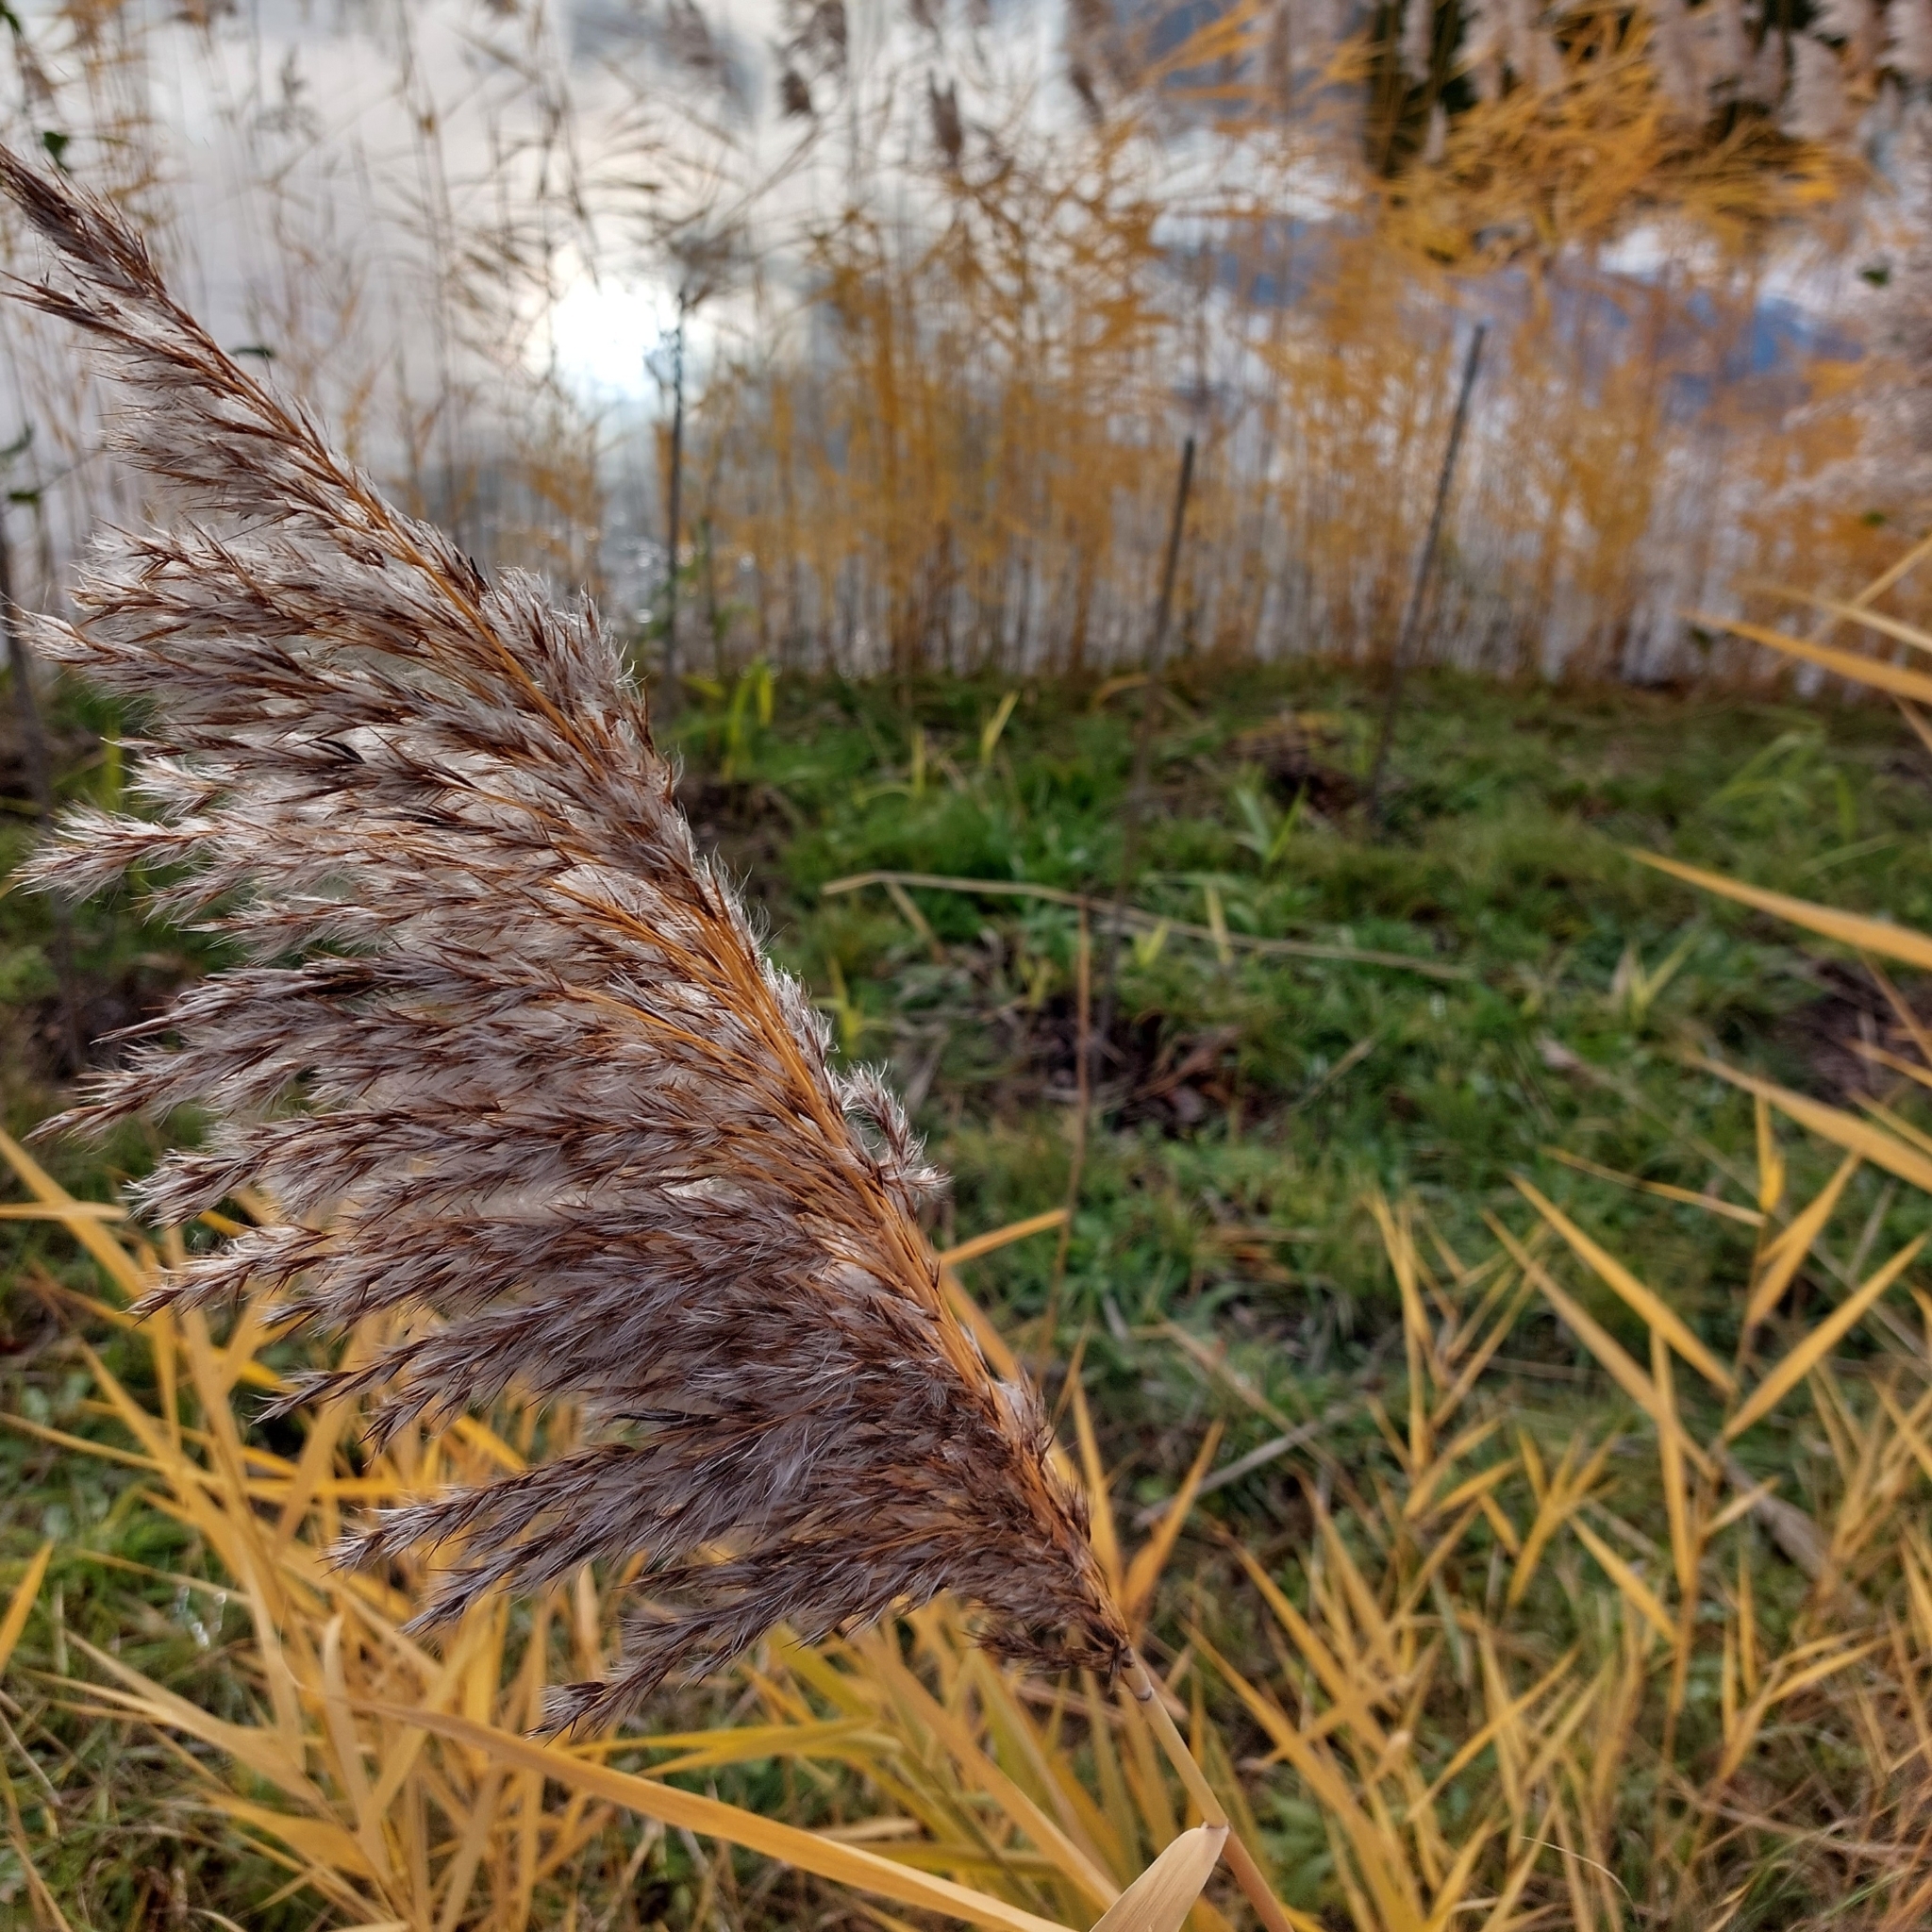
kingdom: Plantae
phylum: Tracheophyta
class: Liliopsida
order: Poales
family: Poaceae
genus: Phragmites
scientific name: Phragmites australis
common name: Common reed
